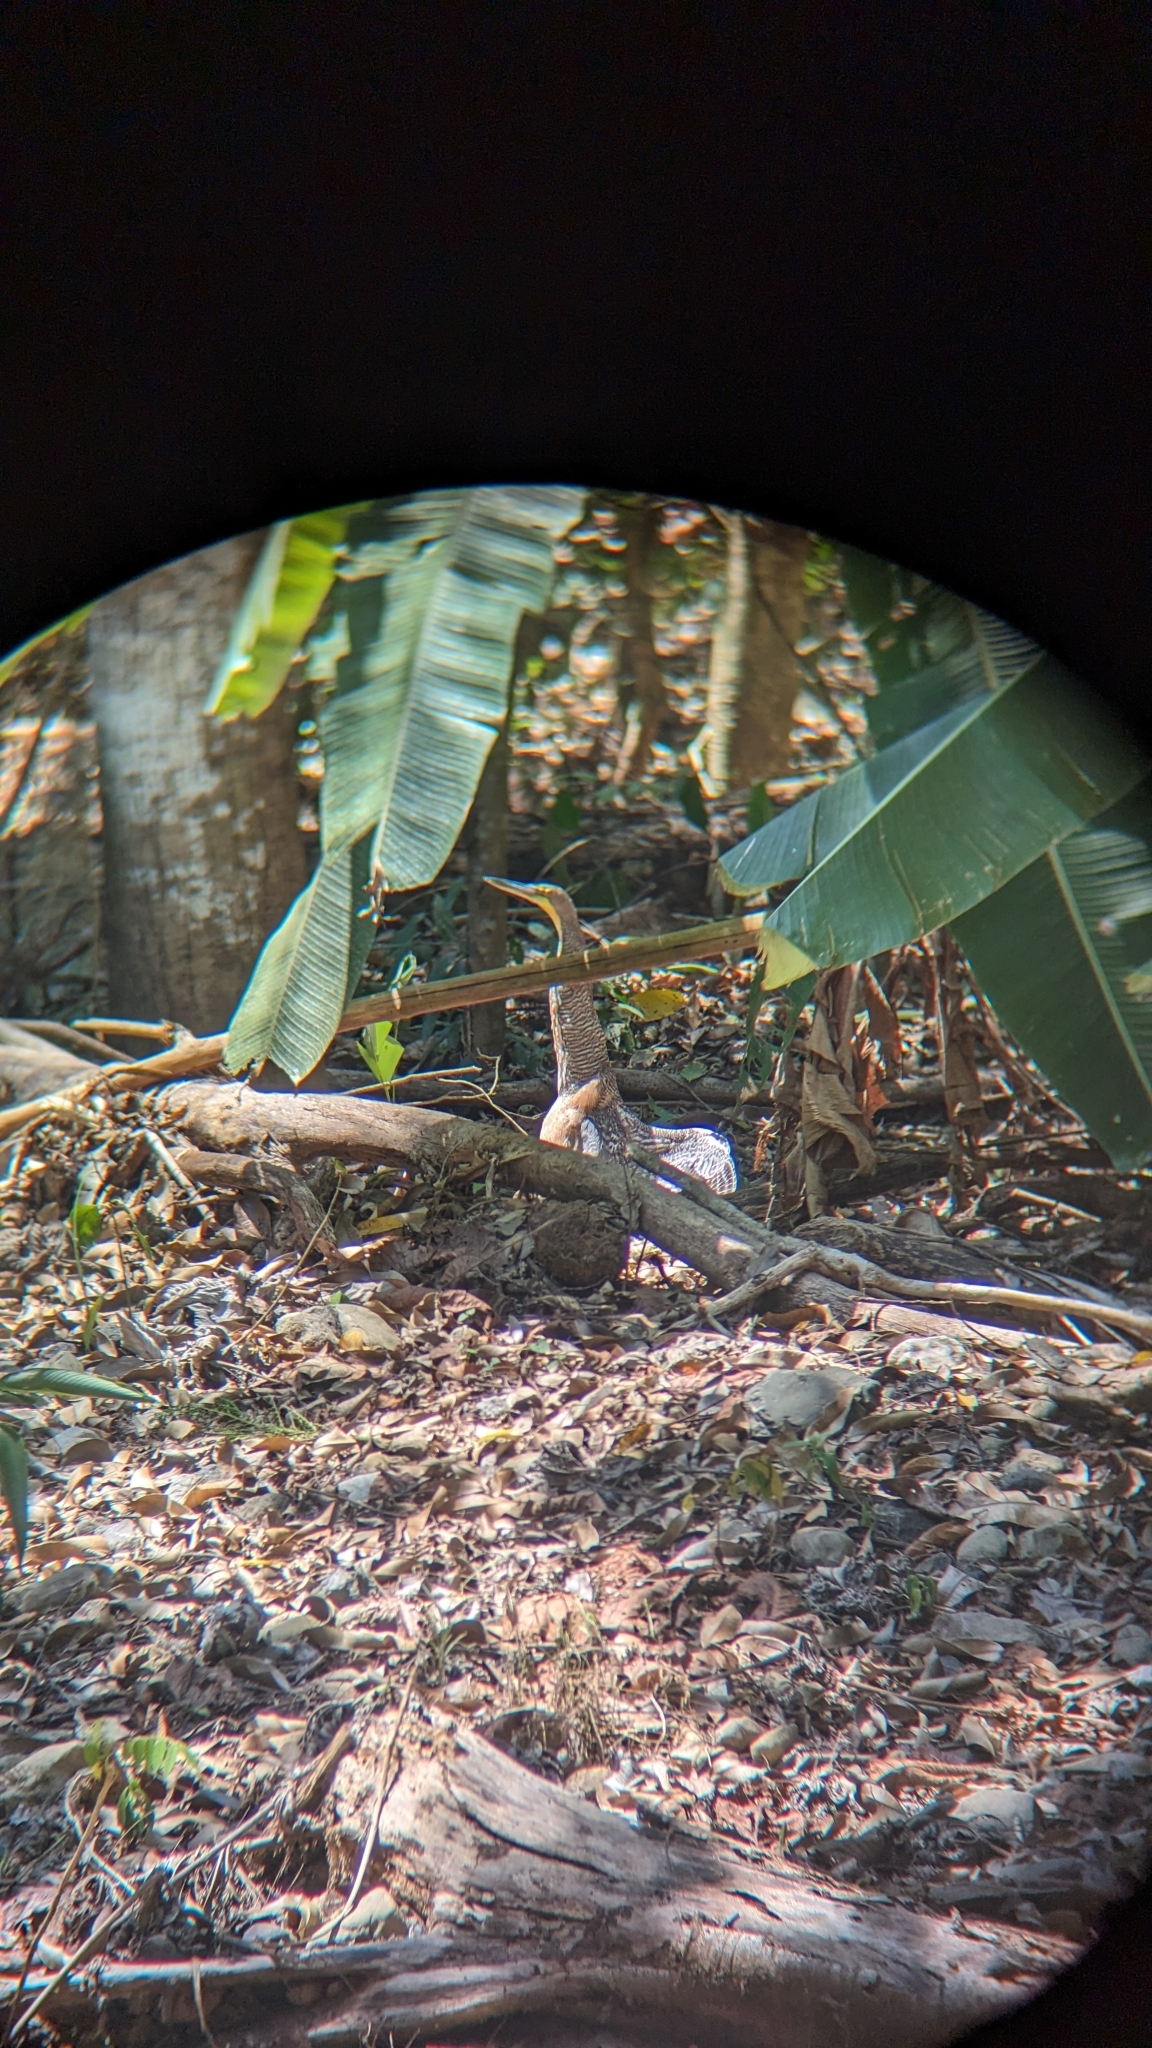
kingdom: Animalia
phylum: Chordata
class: Aves
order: Pelecaniformes
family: Ardeidae
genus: Tigrisoma
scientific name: Tigrisoma mexicanum
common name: Bare-throated tiger-heron
